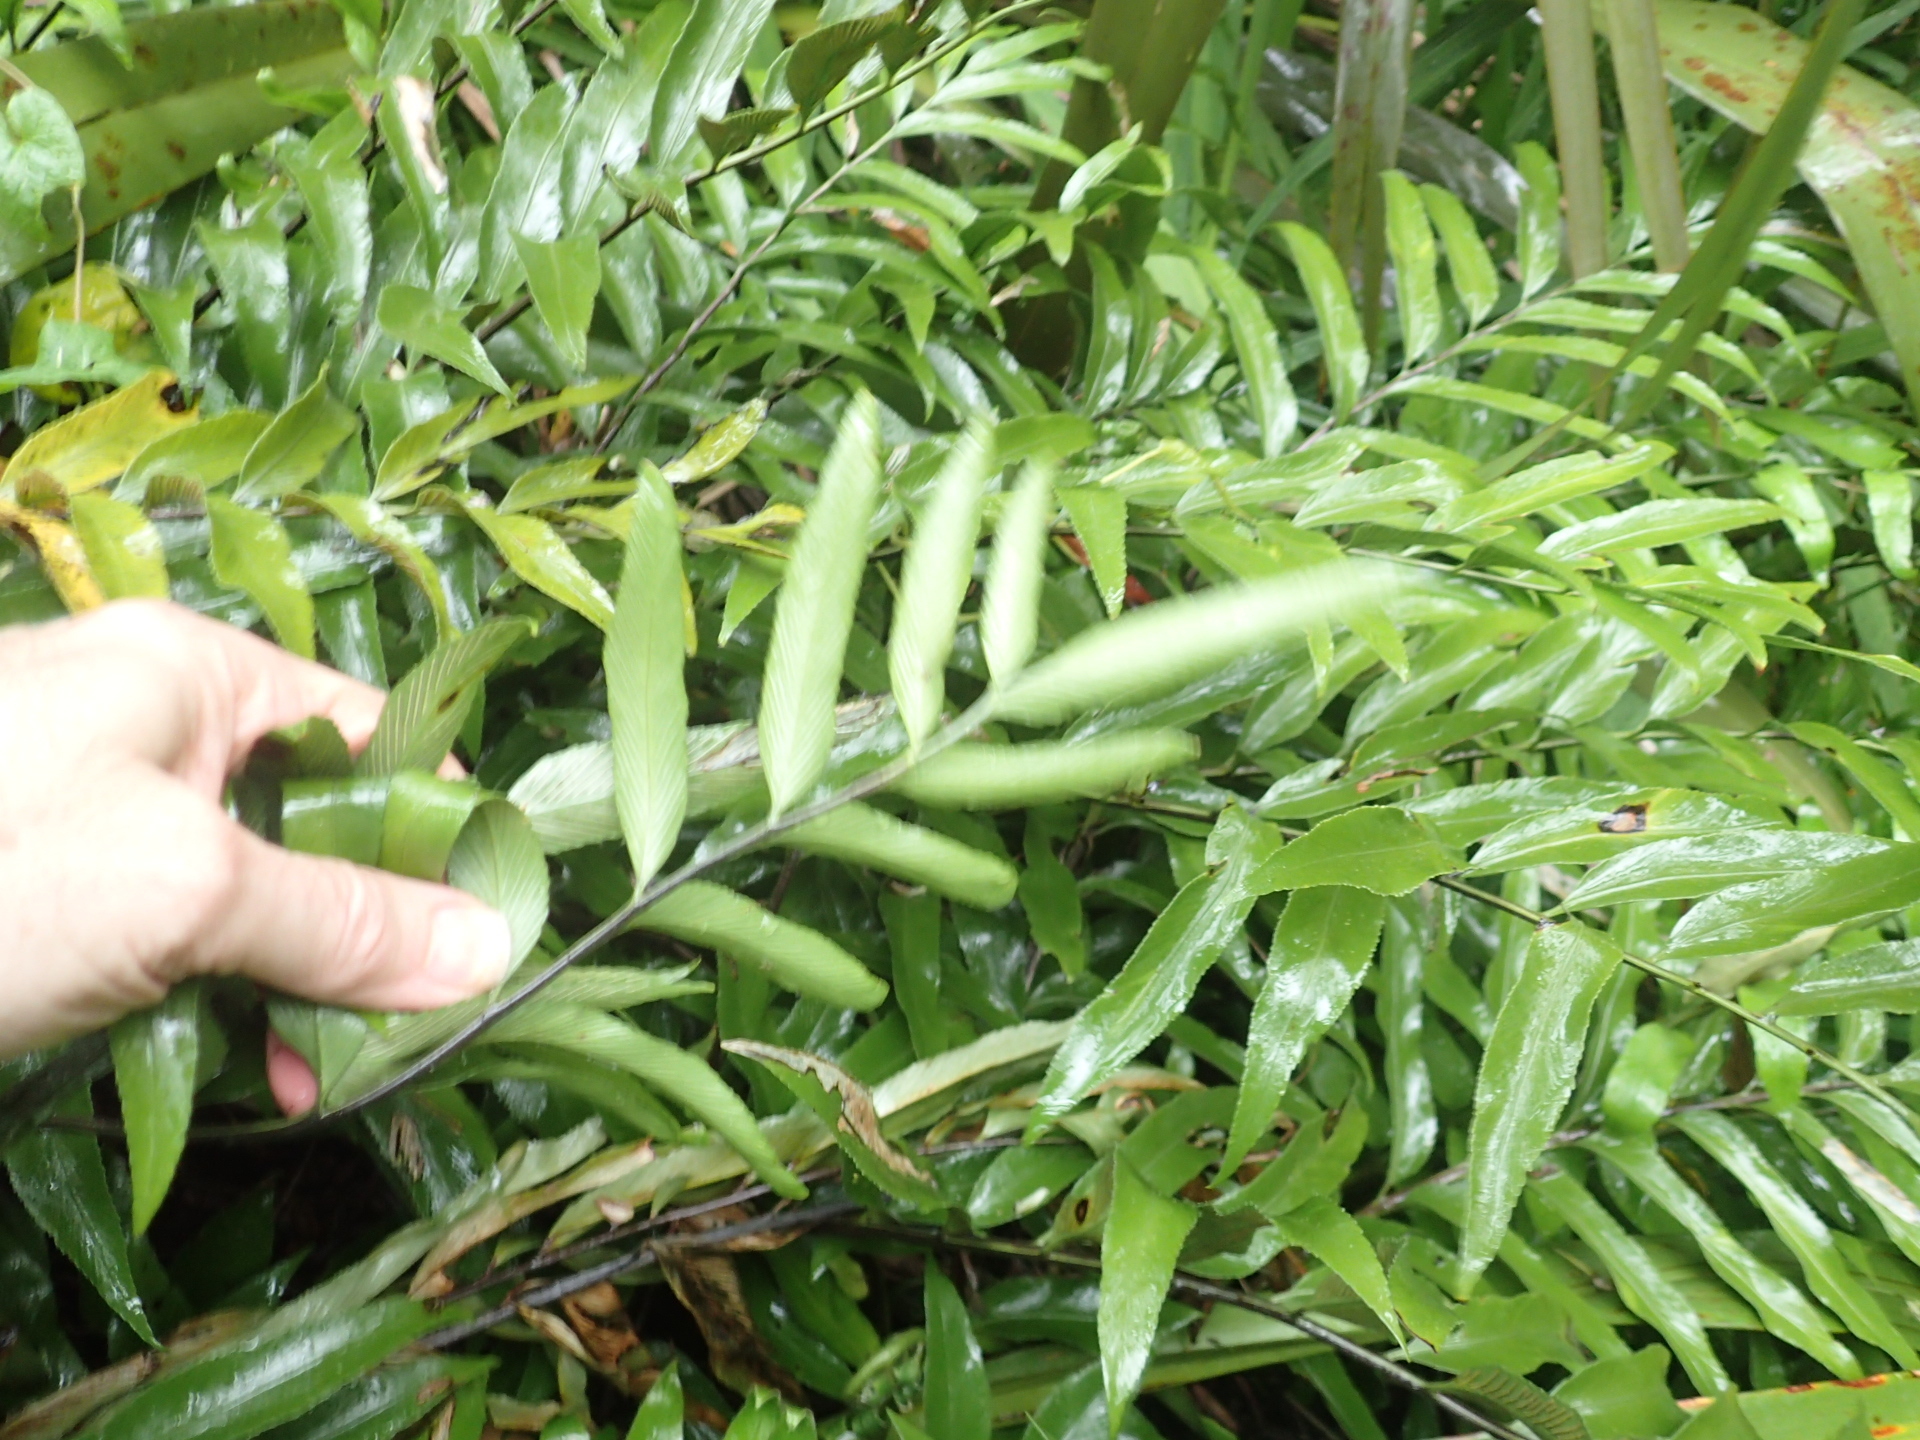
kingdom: Plantae
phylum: Tracheophyta
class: Polypodiopsida
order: Polypodiales
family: Aspleniaceae
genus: Asplenium
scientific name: Asplenium oblongifolium
